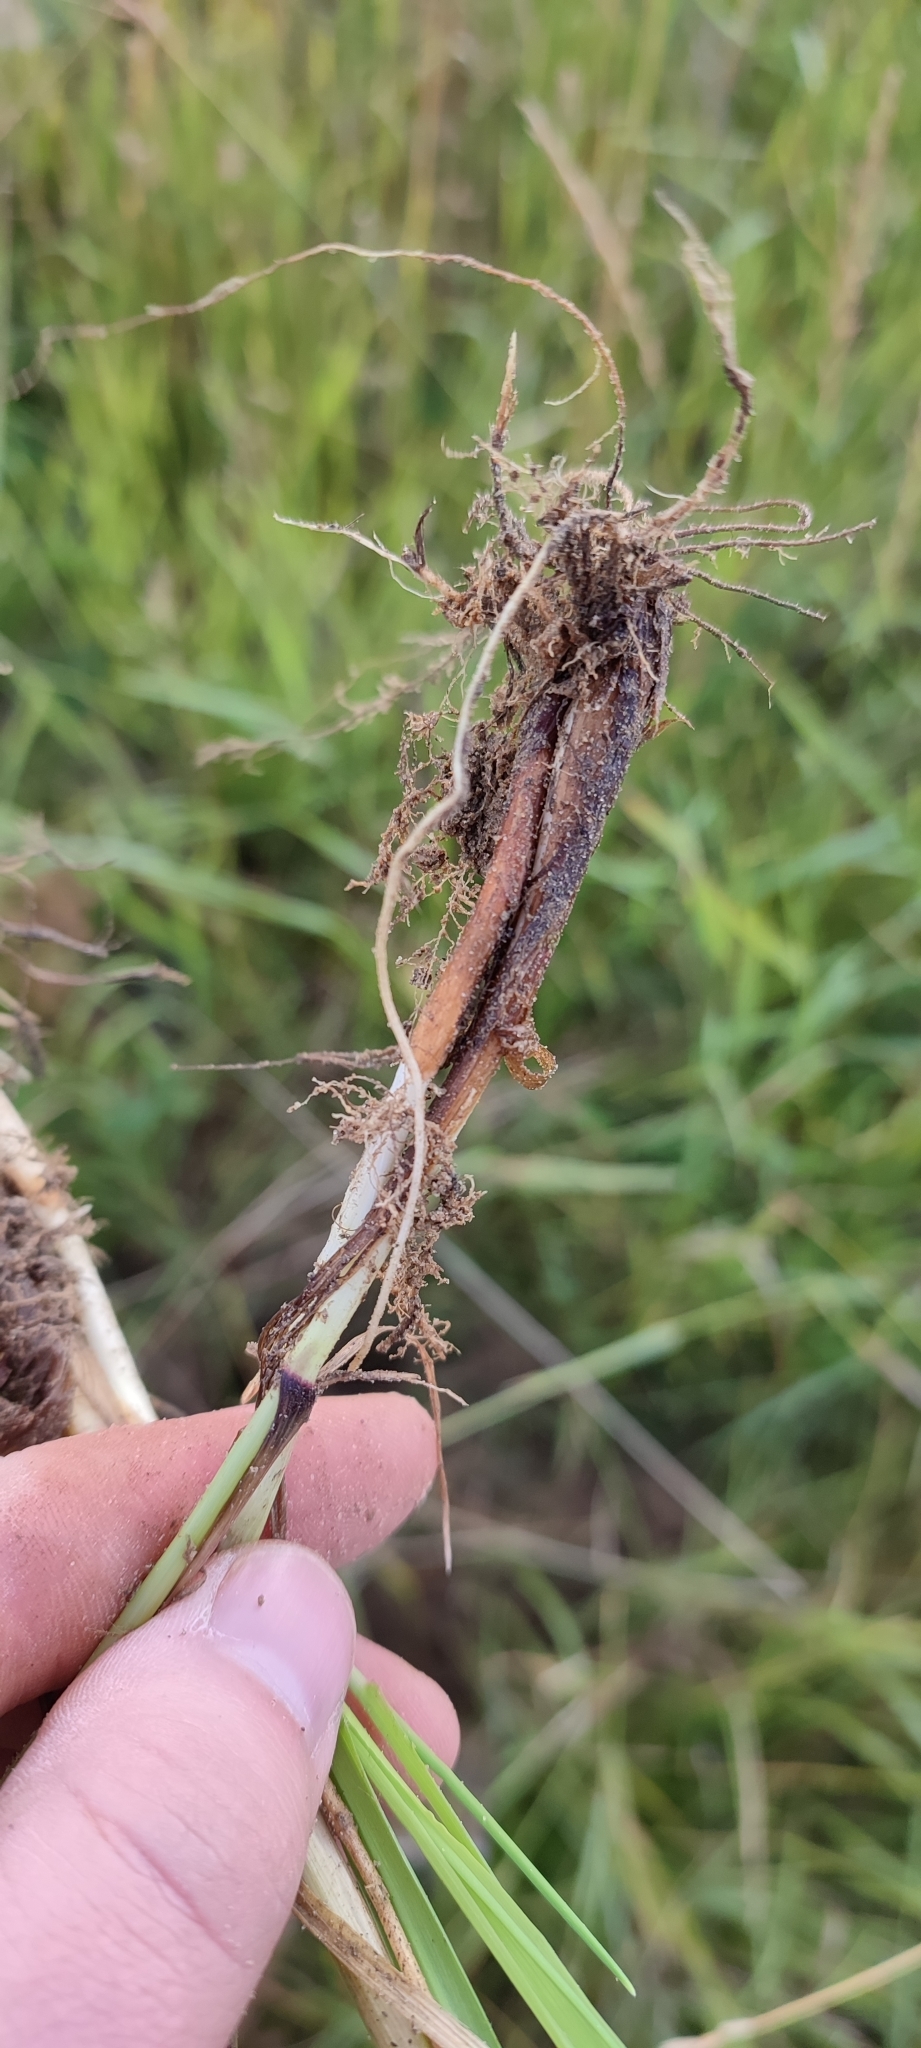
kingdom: Plantae
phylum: Tracheophyta
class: Liliopsida
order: Poales
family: Poaceae
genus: Phleum
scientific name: Phleum pratense
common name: Timothy grass
